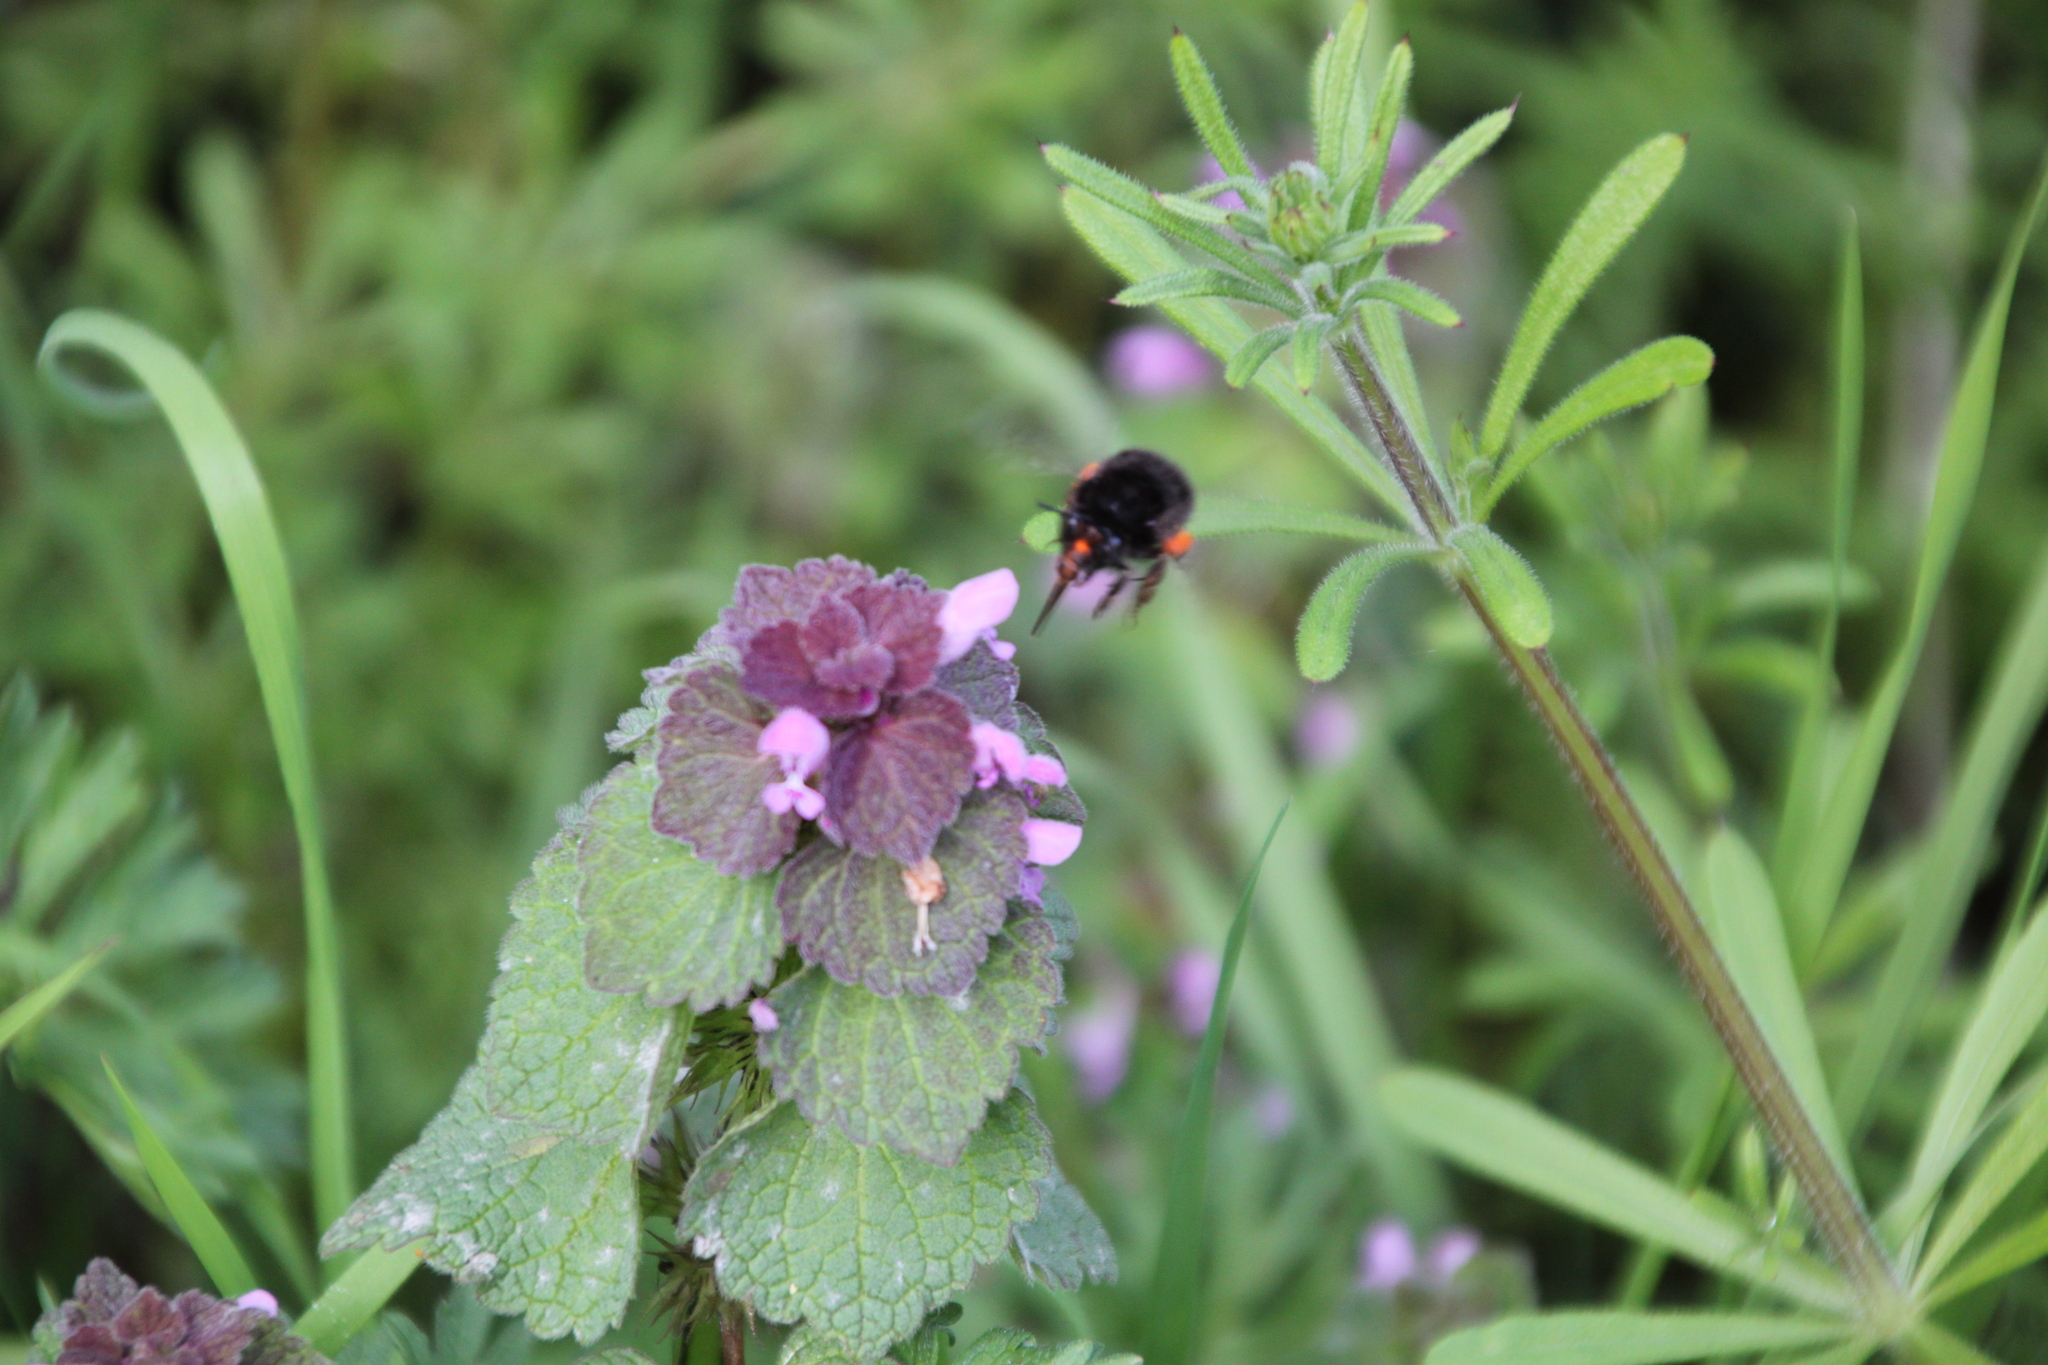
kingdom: Animalia
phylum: Arthropoda
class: Insecta
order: Hymenoptera
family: Apidae
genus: Anthophora
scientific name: Anthophora plumipes
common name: Hairy-footed flower bee
